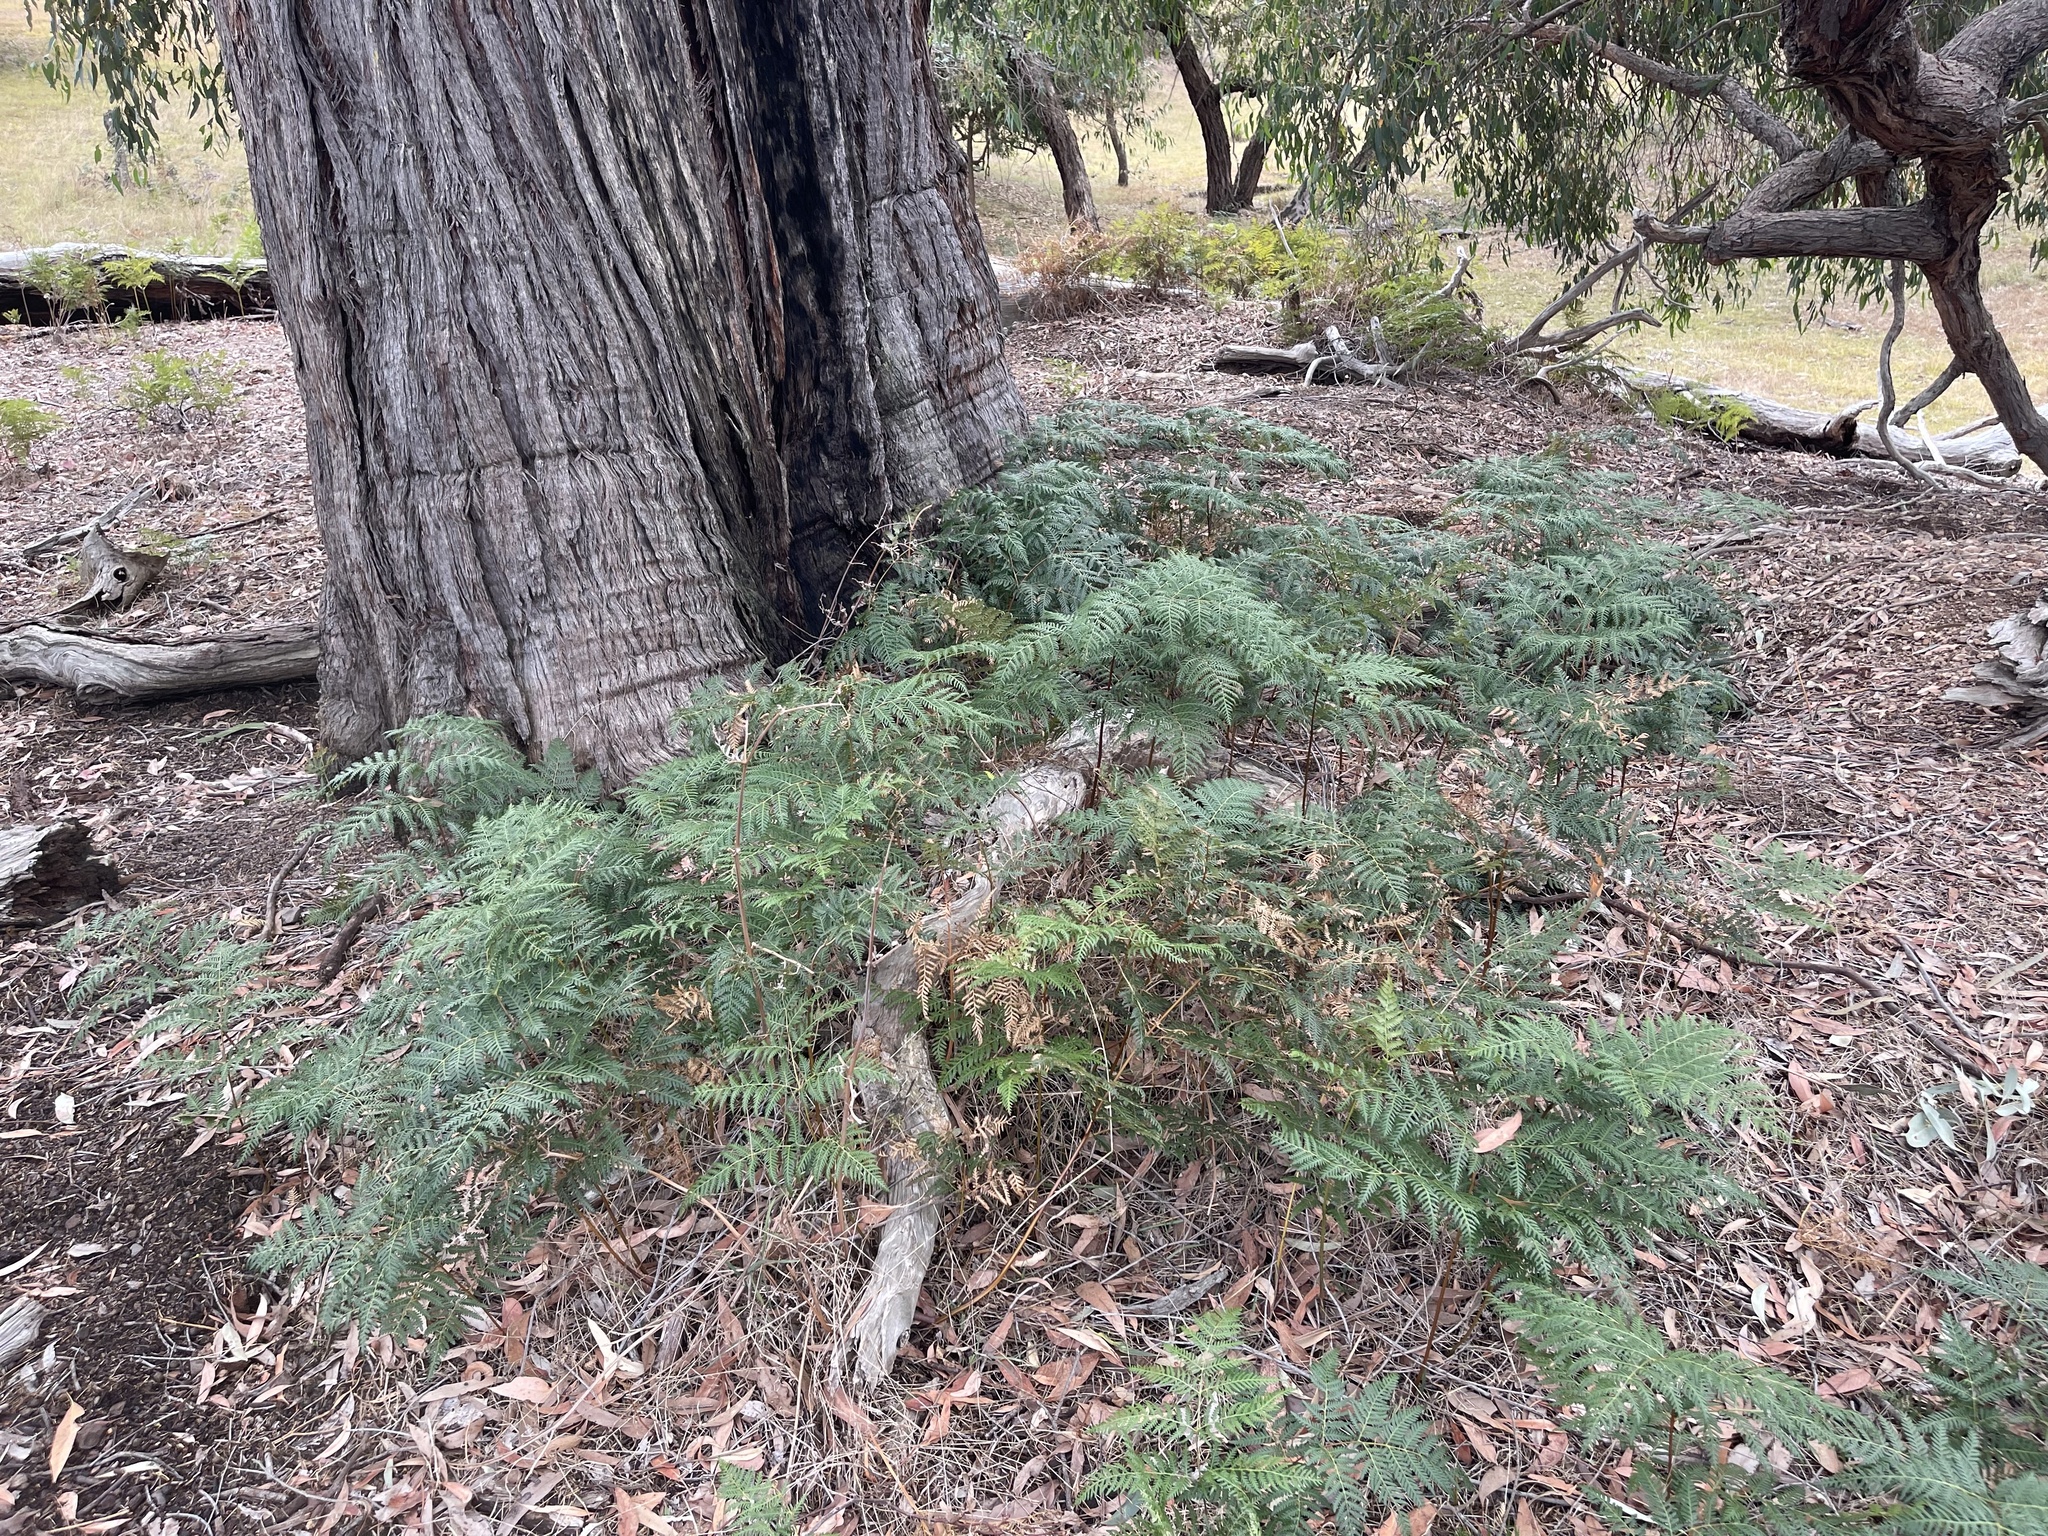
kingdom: Plantae
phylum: Tracheophyta
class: Polypodiopsida
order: Polypodiales
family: Dennstaedtiaceae
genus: Pteridium
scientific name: Pteridium esculentum
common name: Bracken fern
